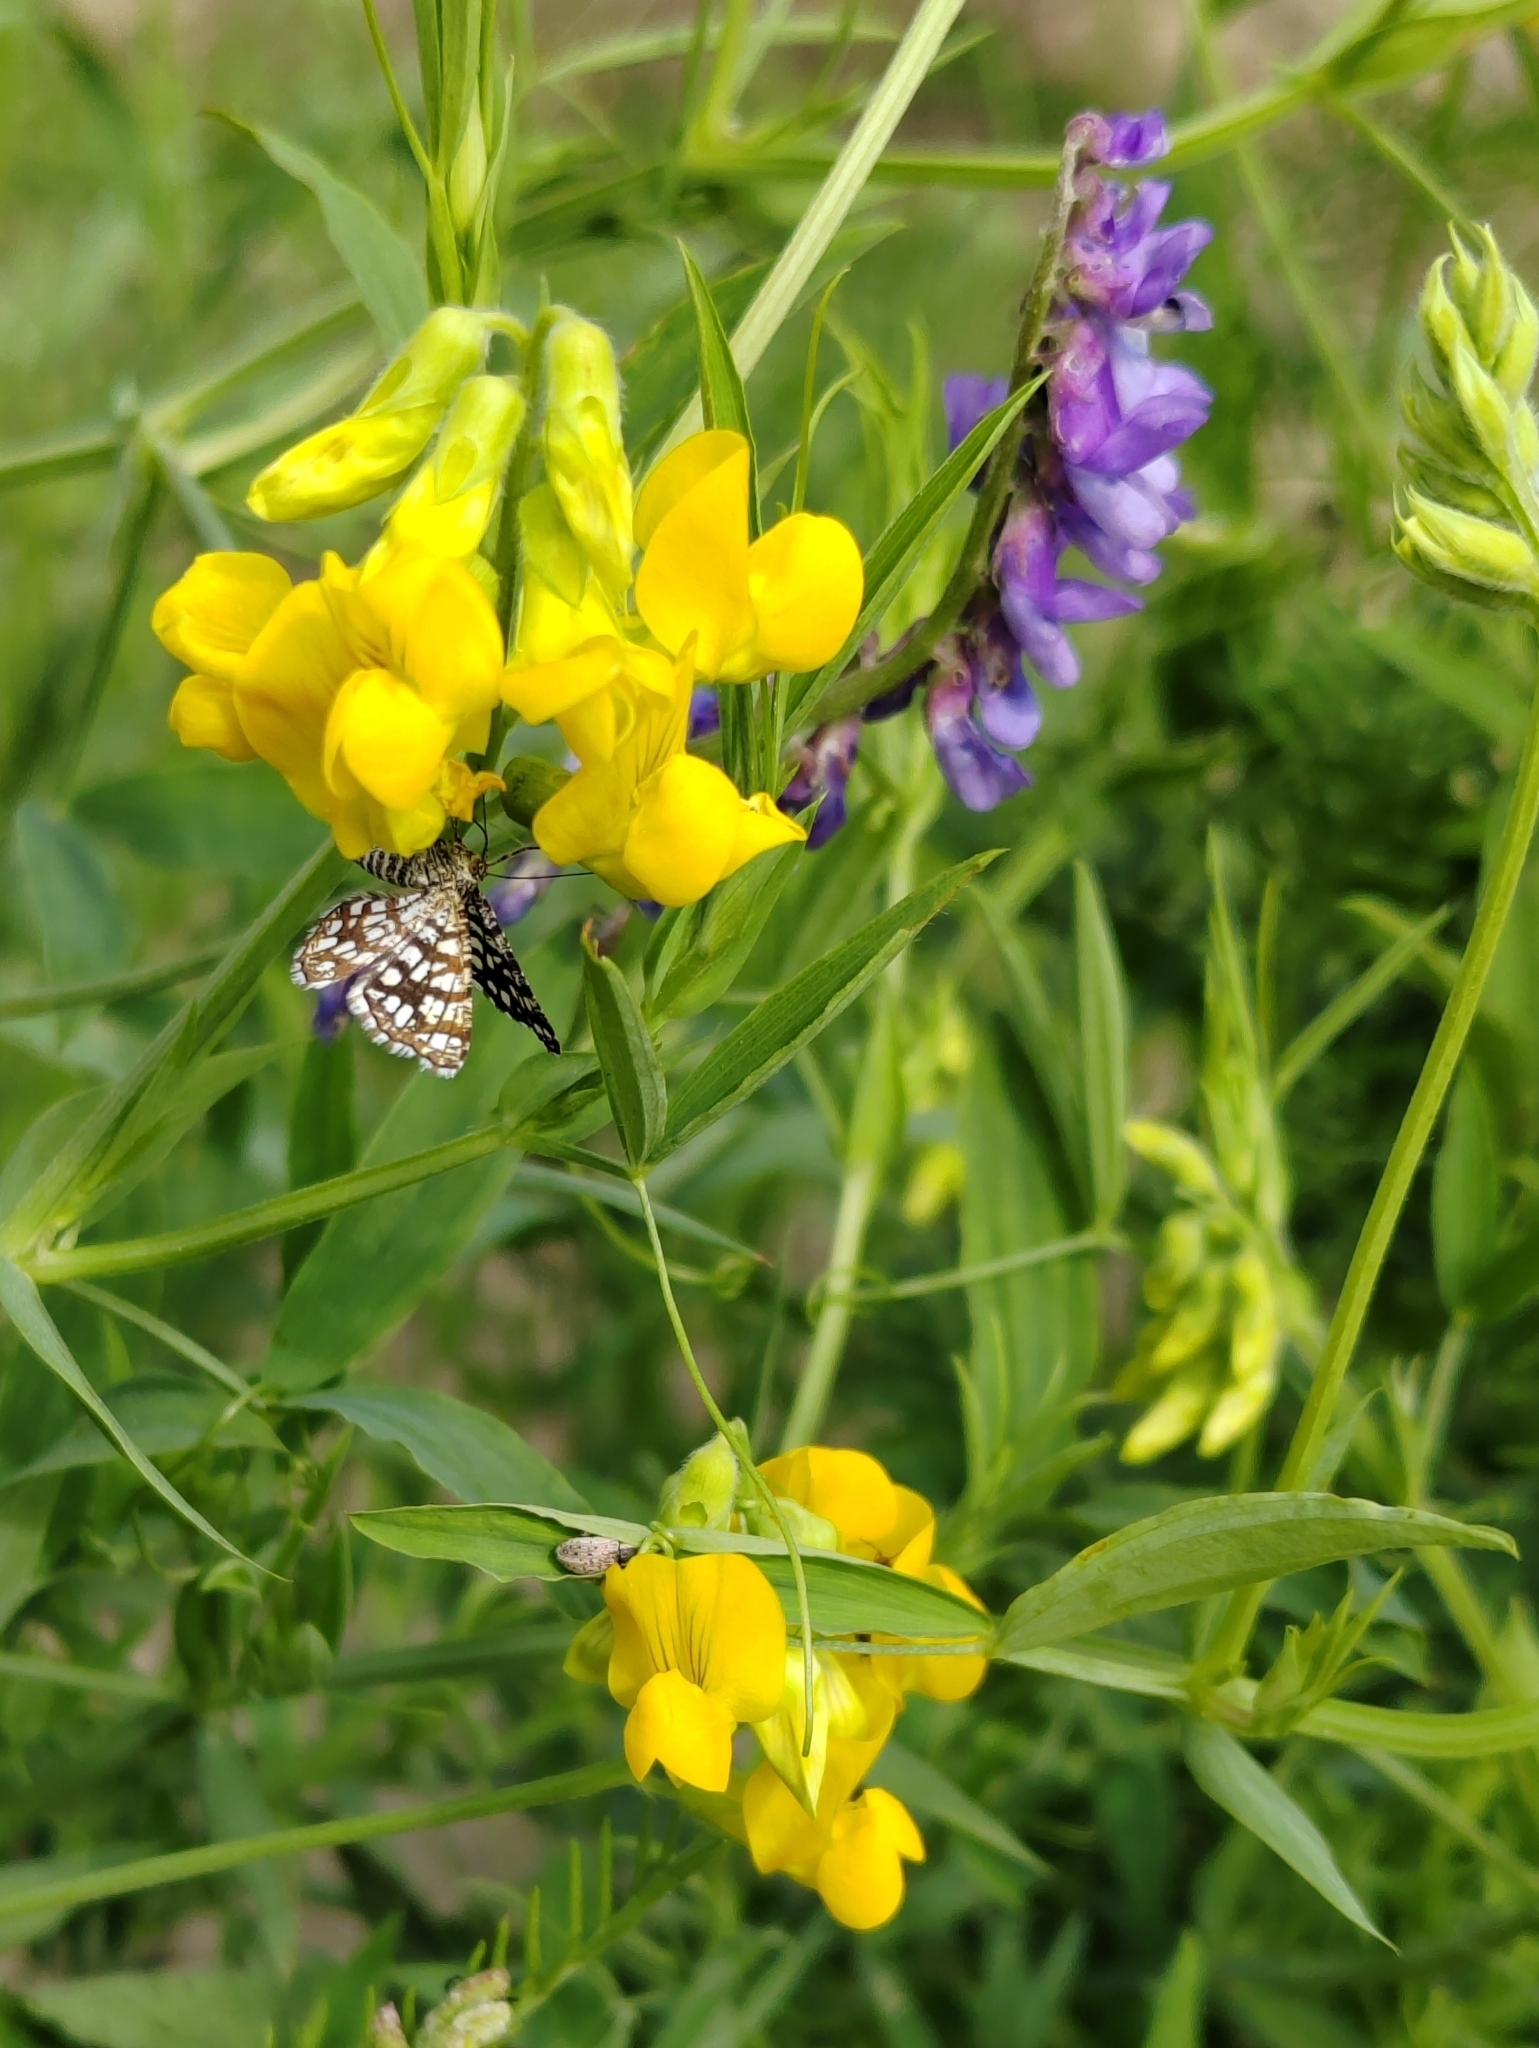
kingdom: Animalia
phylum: Arthropoda
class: Insecta
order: Lepidoptera
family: Geometridae
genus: Chiasmia
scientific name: Chiasmia clathrata
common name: Latticed heath
